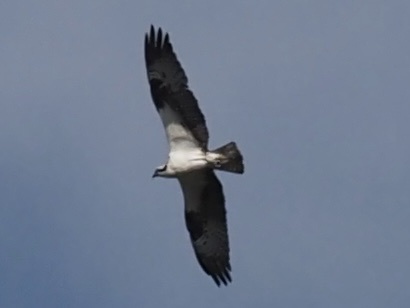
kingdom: Animalia
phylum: Chordata
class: Aves
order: Accipitriformes
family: Pandionidae
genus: Pandion
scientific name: Pandion haliaetus
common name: Osprey
